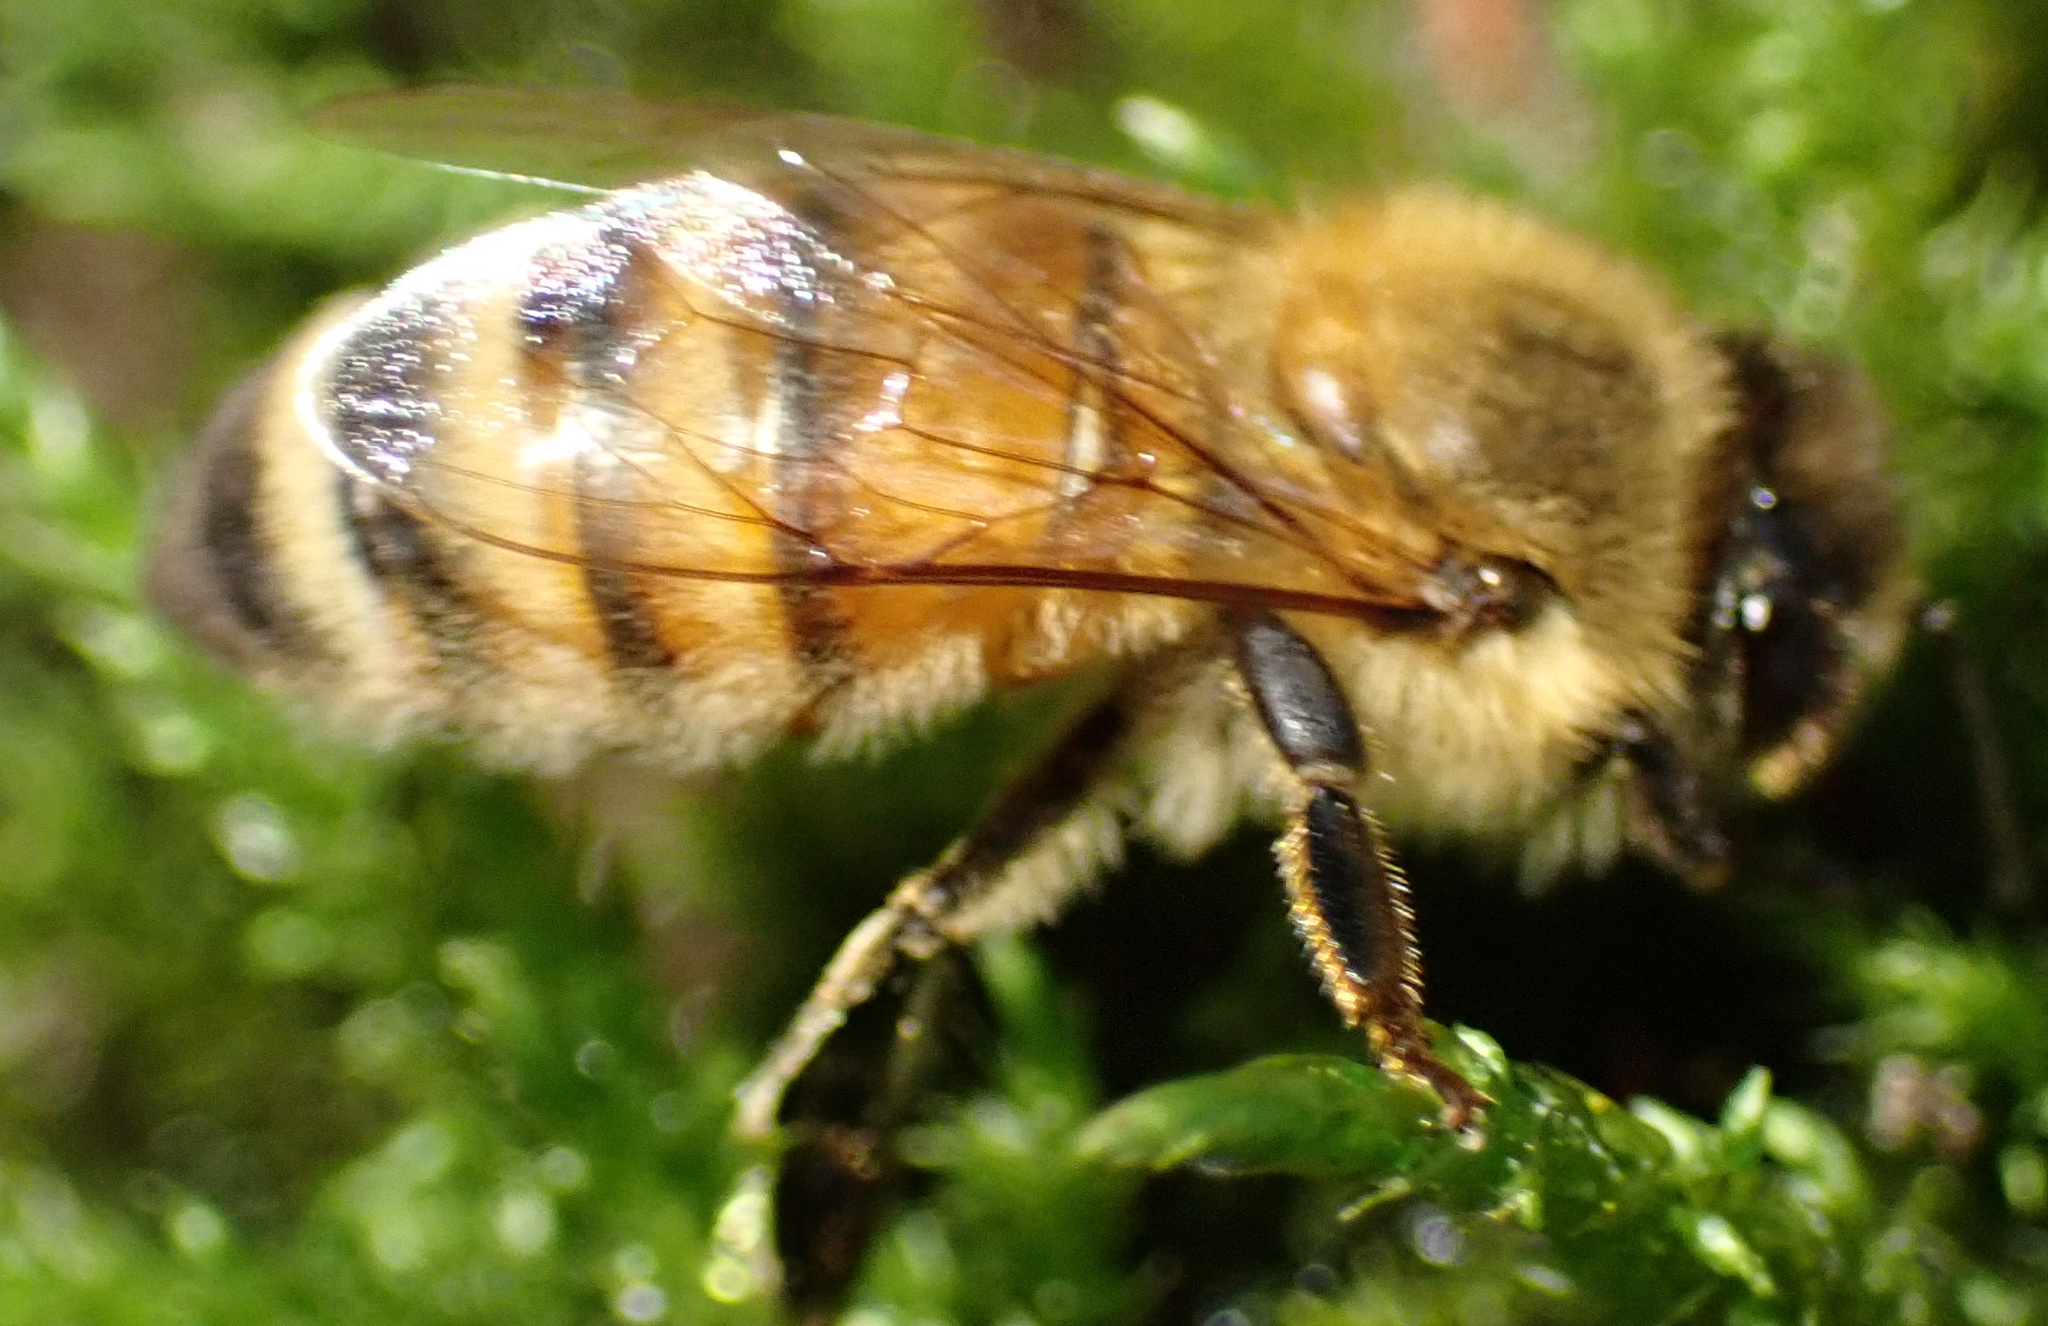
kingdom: Animalia
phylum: Arthropoda
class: Insecta
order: Hymenoptera
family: Apidae
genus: Apis
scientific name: Apis mellifera
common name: Honey bee
